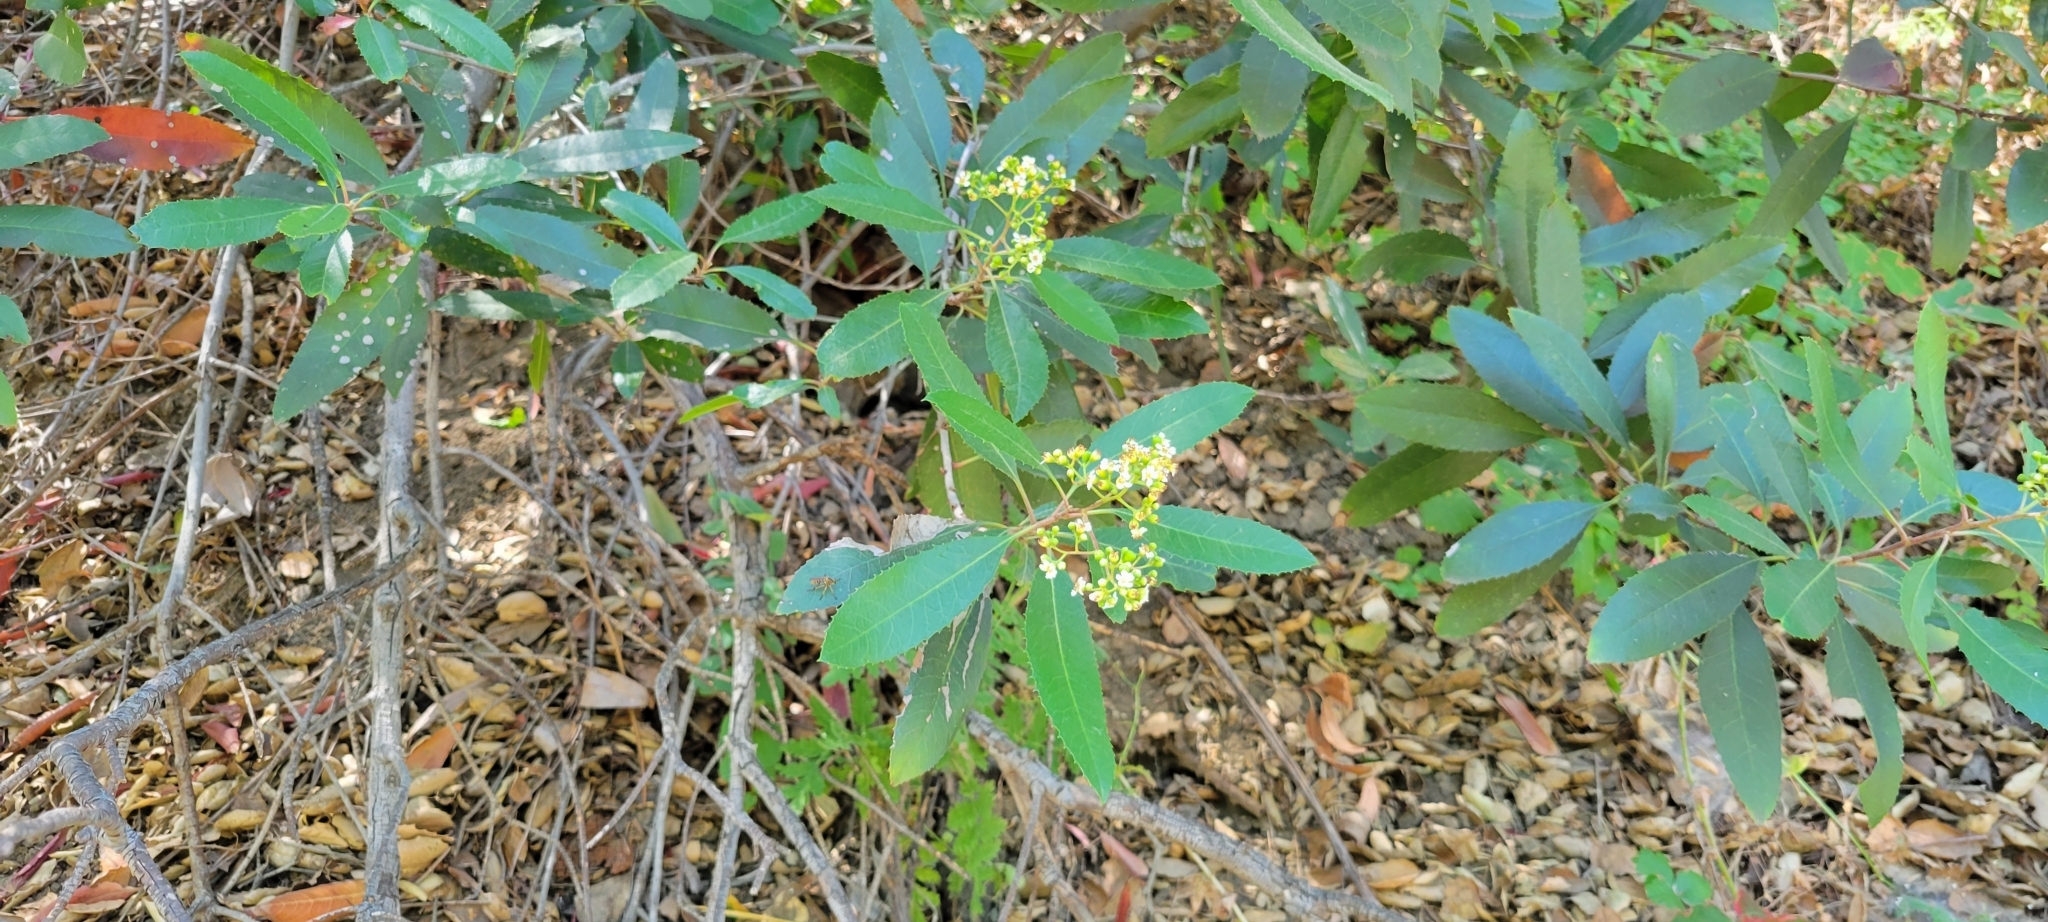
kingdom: Plantae
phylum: Tracheophyta
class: Magnoliopsida
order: Rosales
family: Rosaceae
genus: Heteromeles
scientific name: Heteromeles arbutifolia
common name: California-holly
